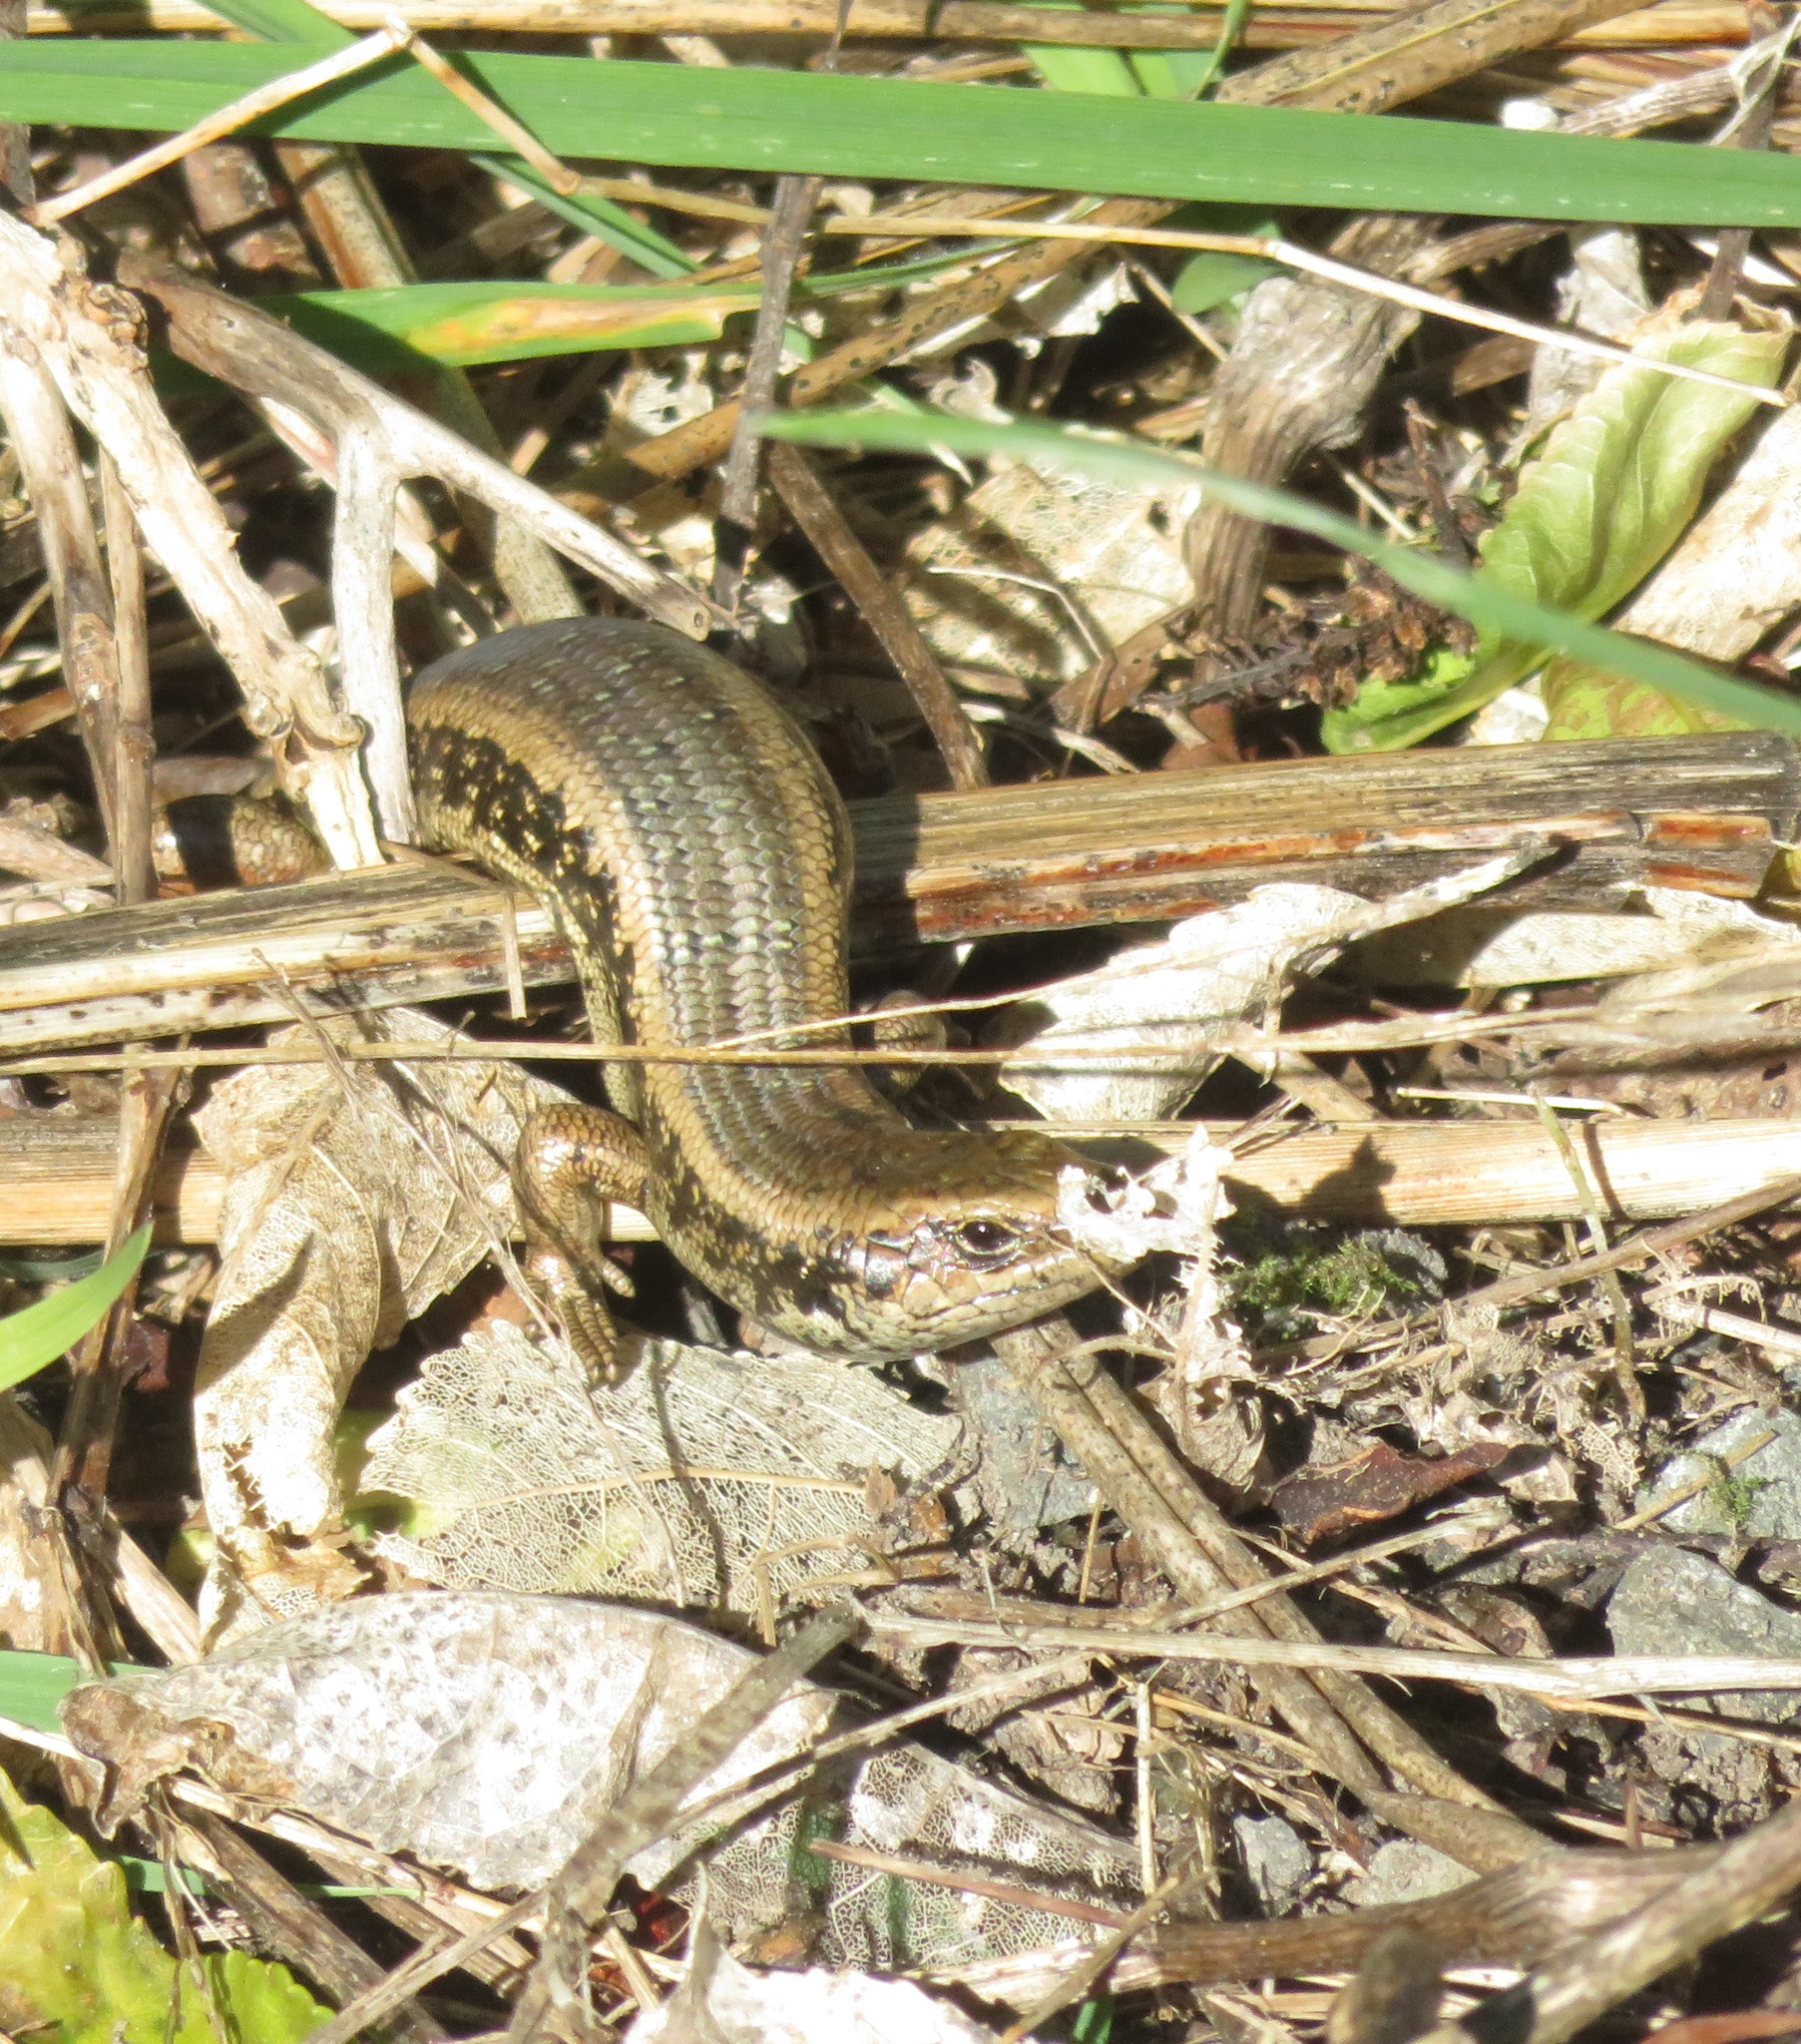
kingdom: Animalia
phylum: Chordata
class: Squamata
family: Scincidae
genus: Oligosoma
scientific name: Oligosoma kokowai
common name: Northern spotted skink
